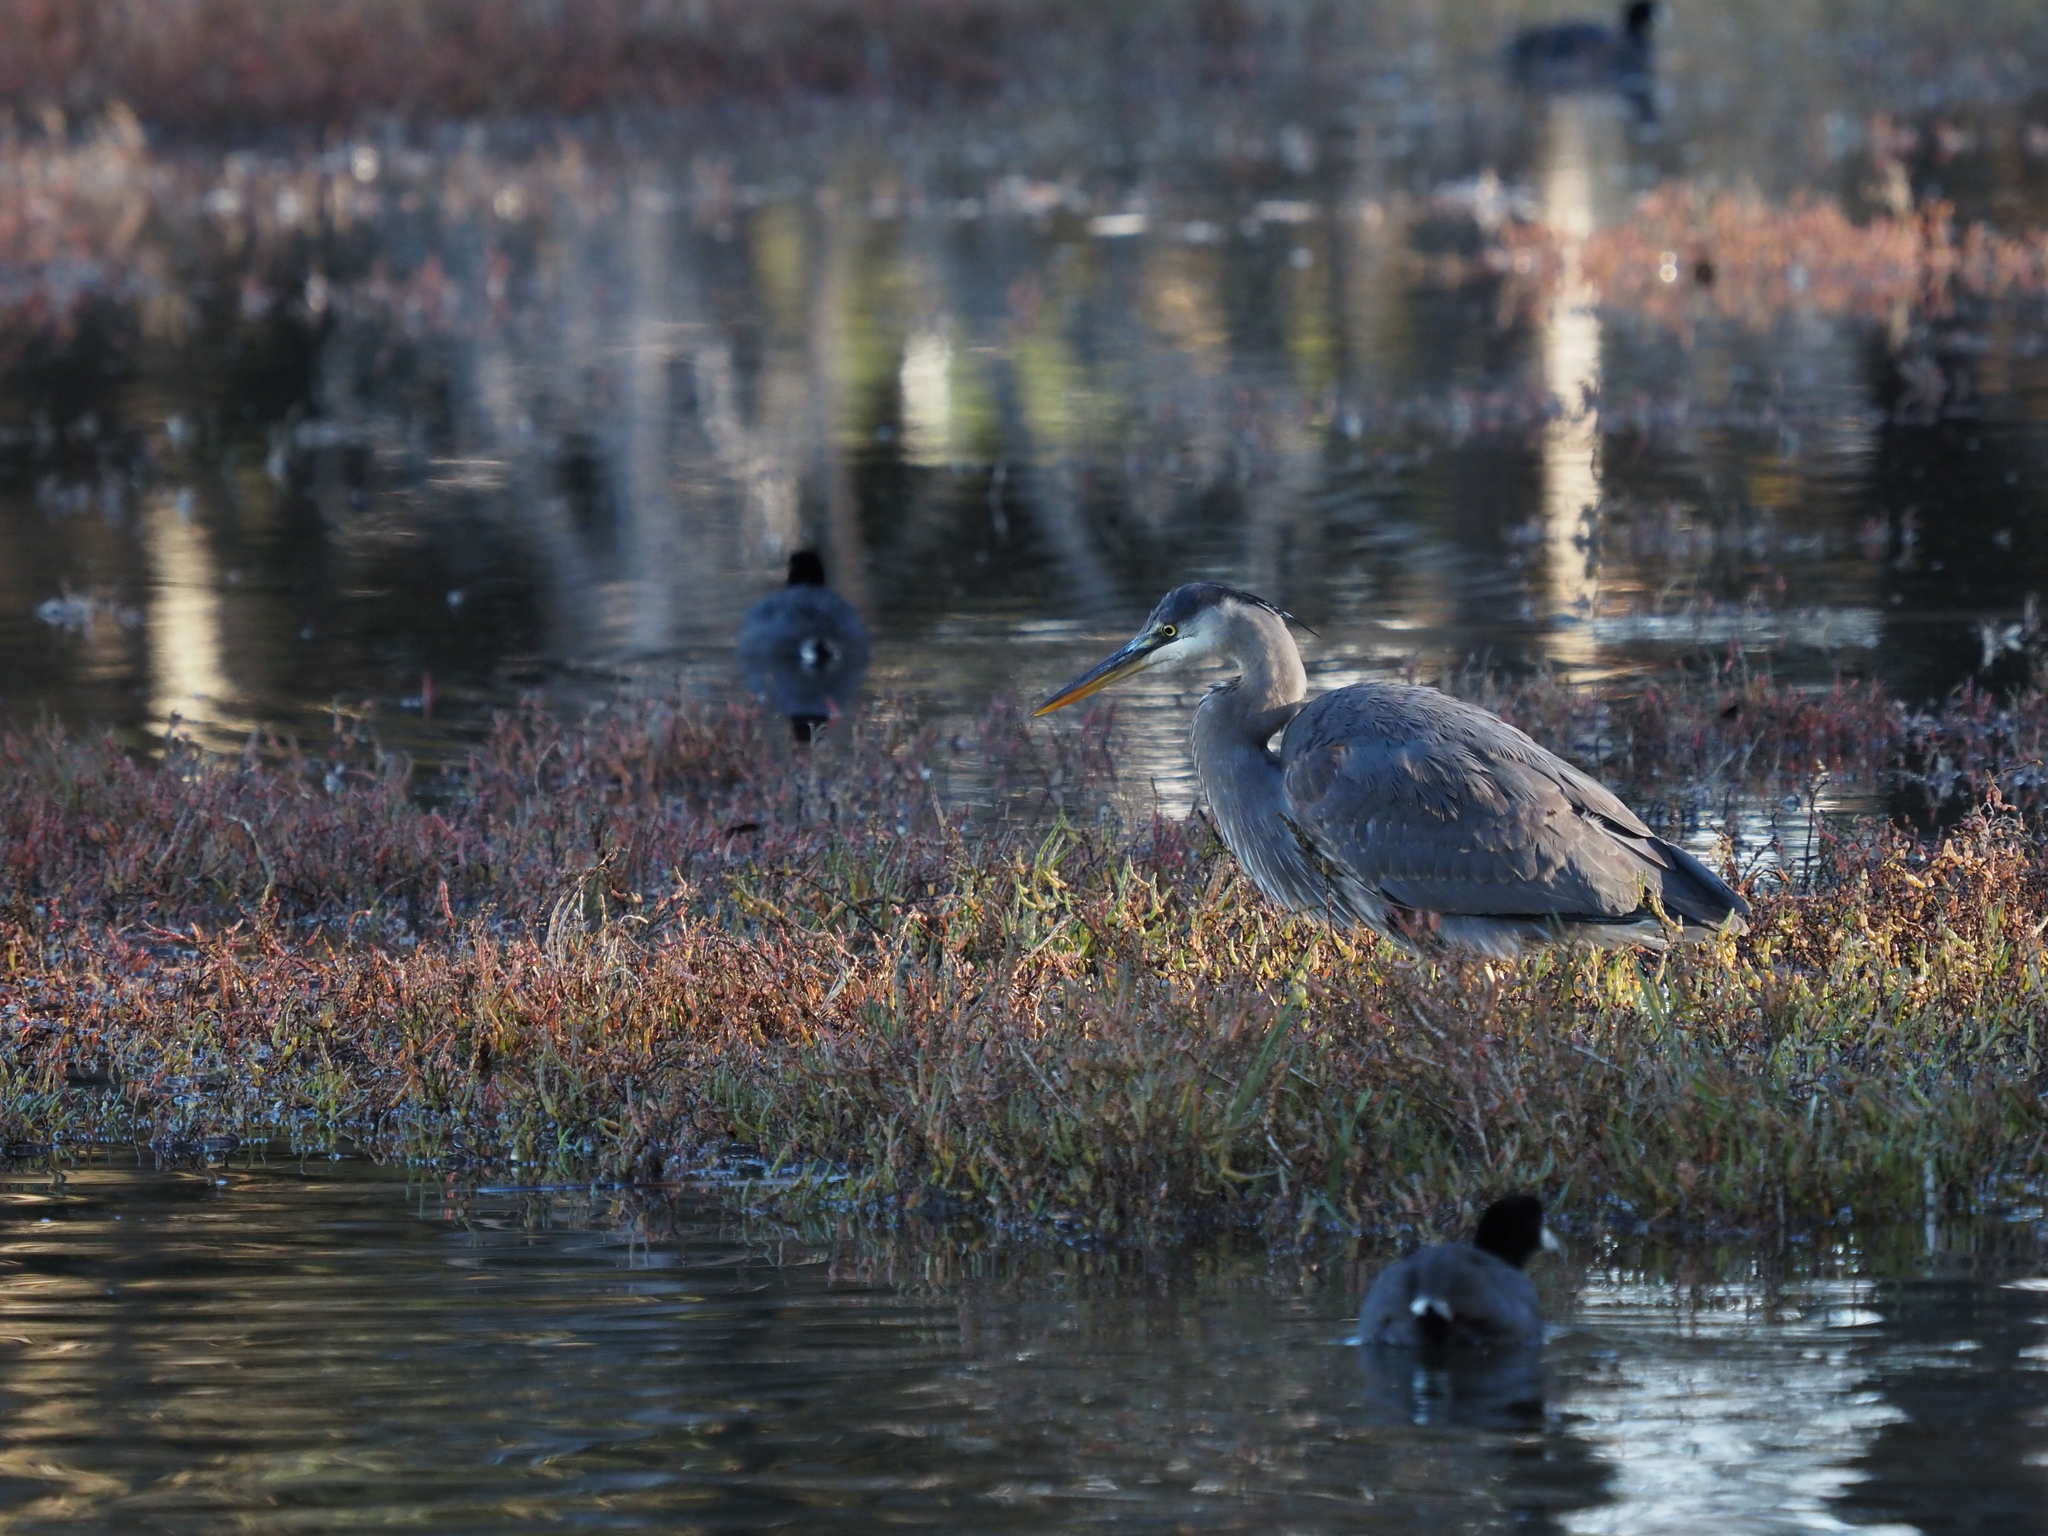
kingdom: Animalia
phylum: Chordata
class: Aves
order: Pelecaniformes
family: Ardeidae
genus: Ardea
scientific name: Ardea herodias
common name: Great blue heron
